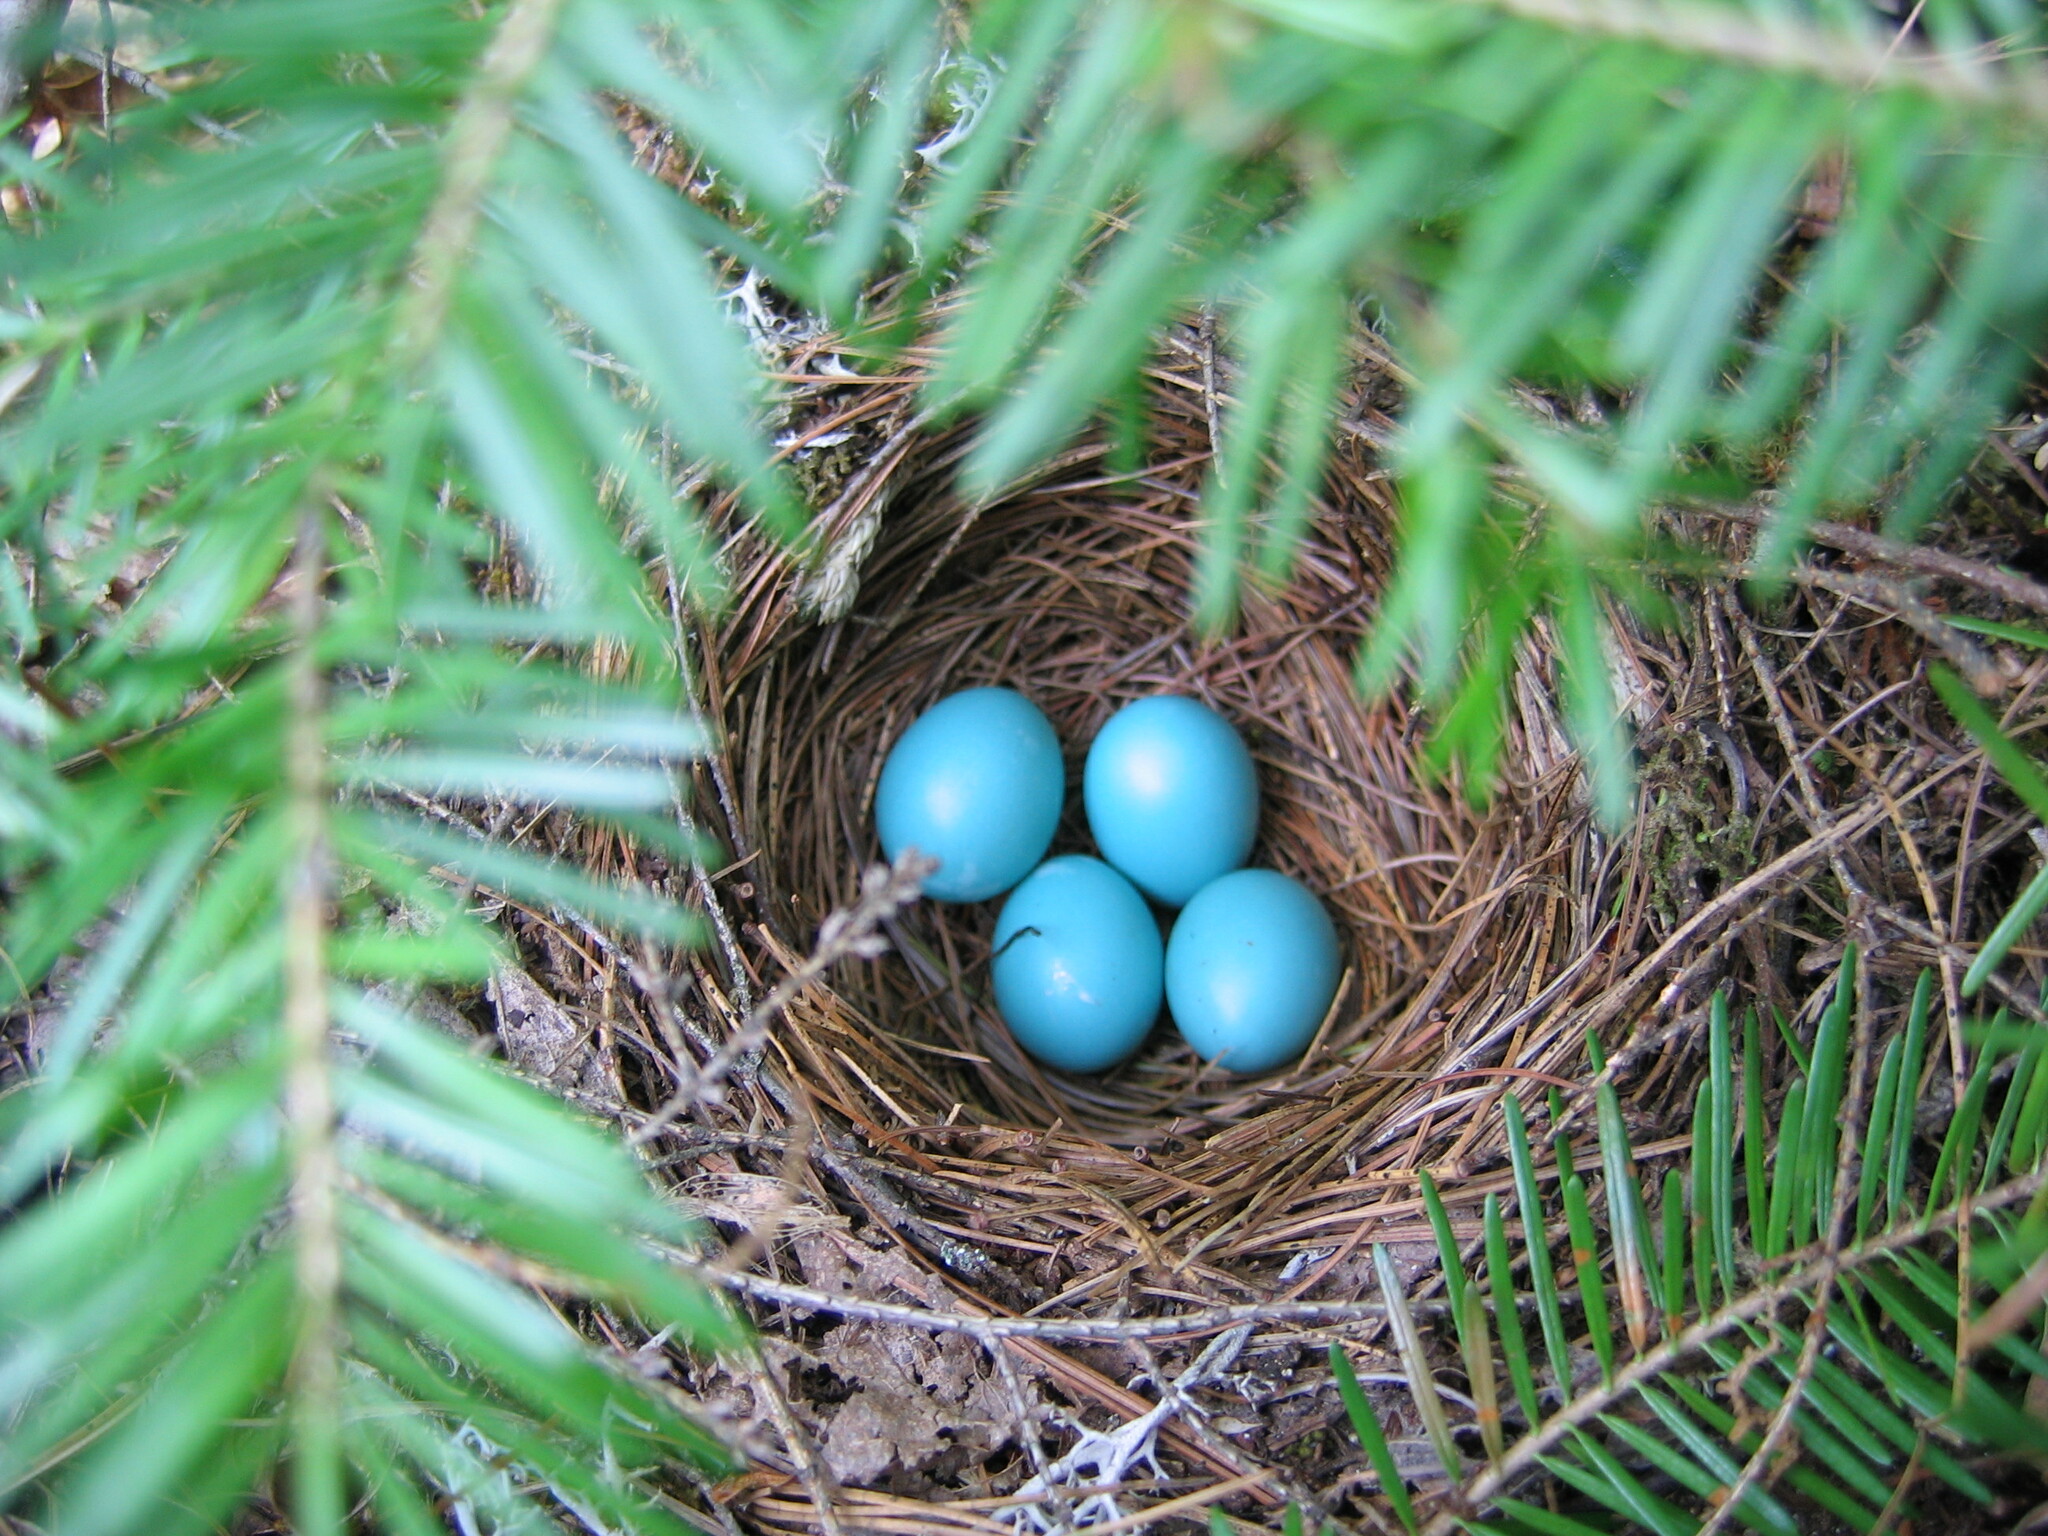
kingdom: Animalia
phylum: Chordata
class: Aves
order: Passeriformes
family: Turdidae
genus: Catharus
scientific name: Catharus guttatus
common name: Hermit thrush
